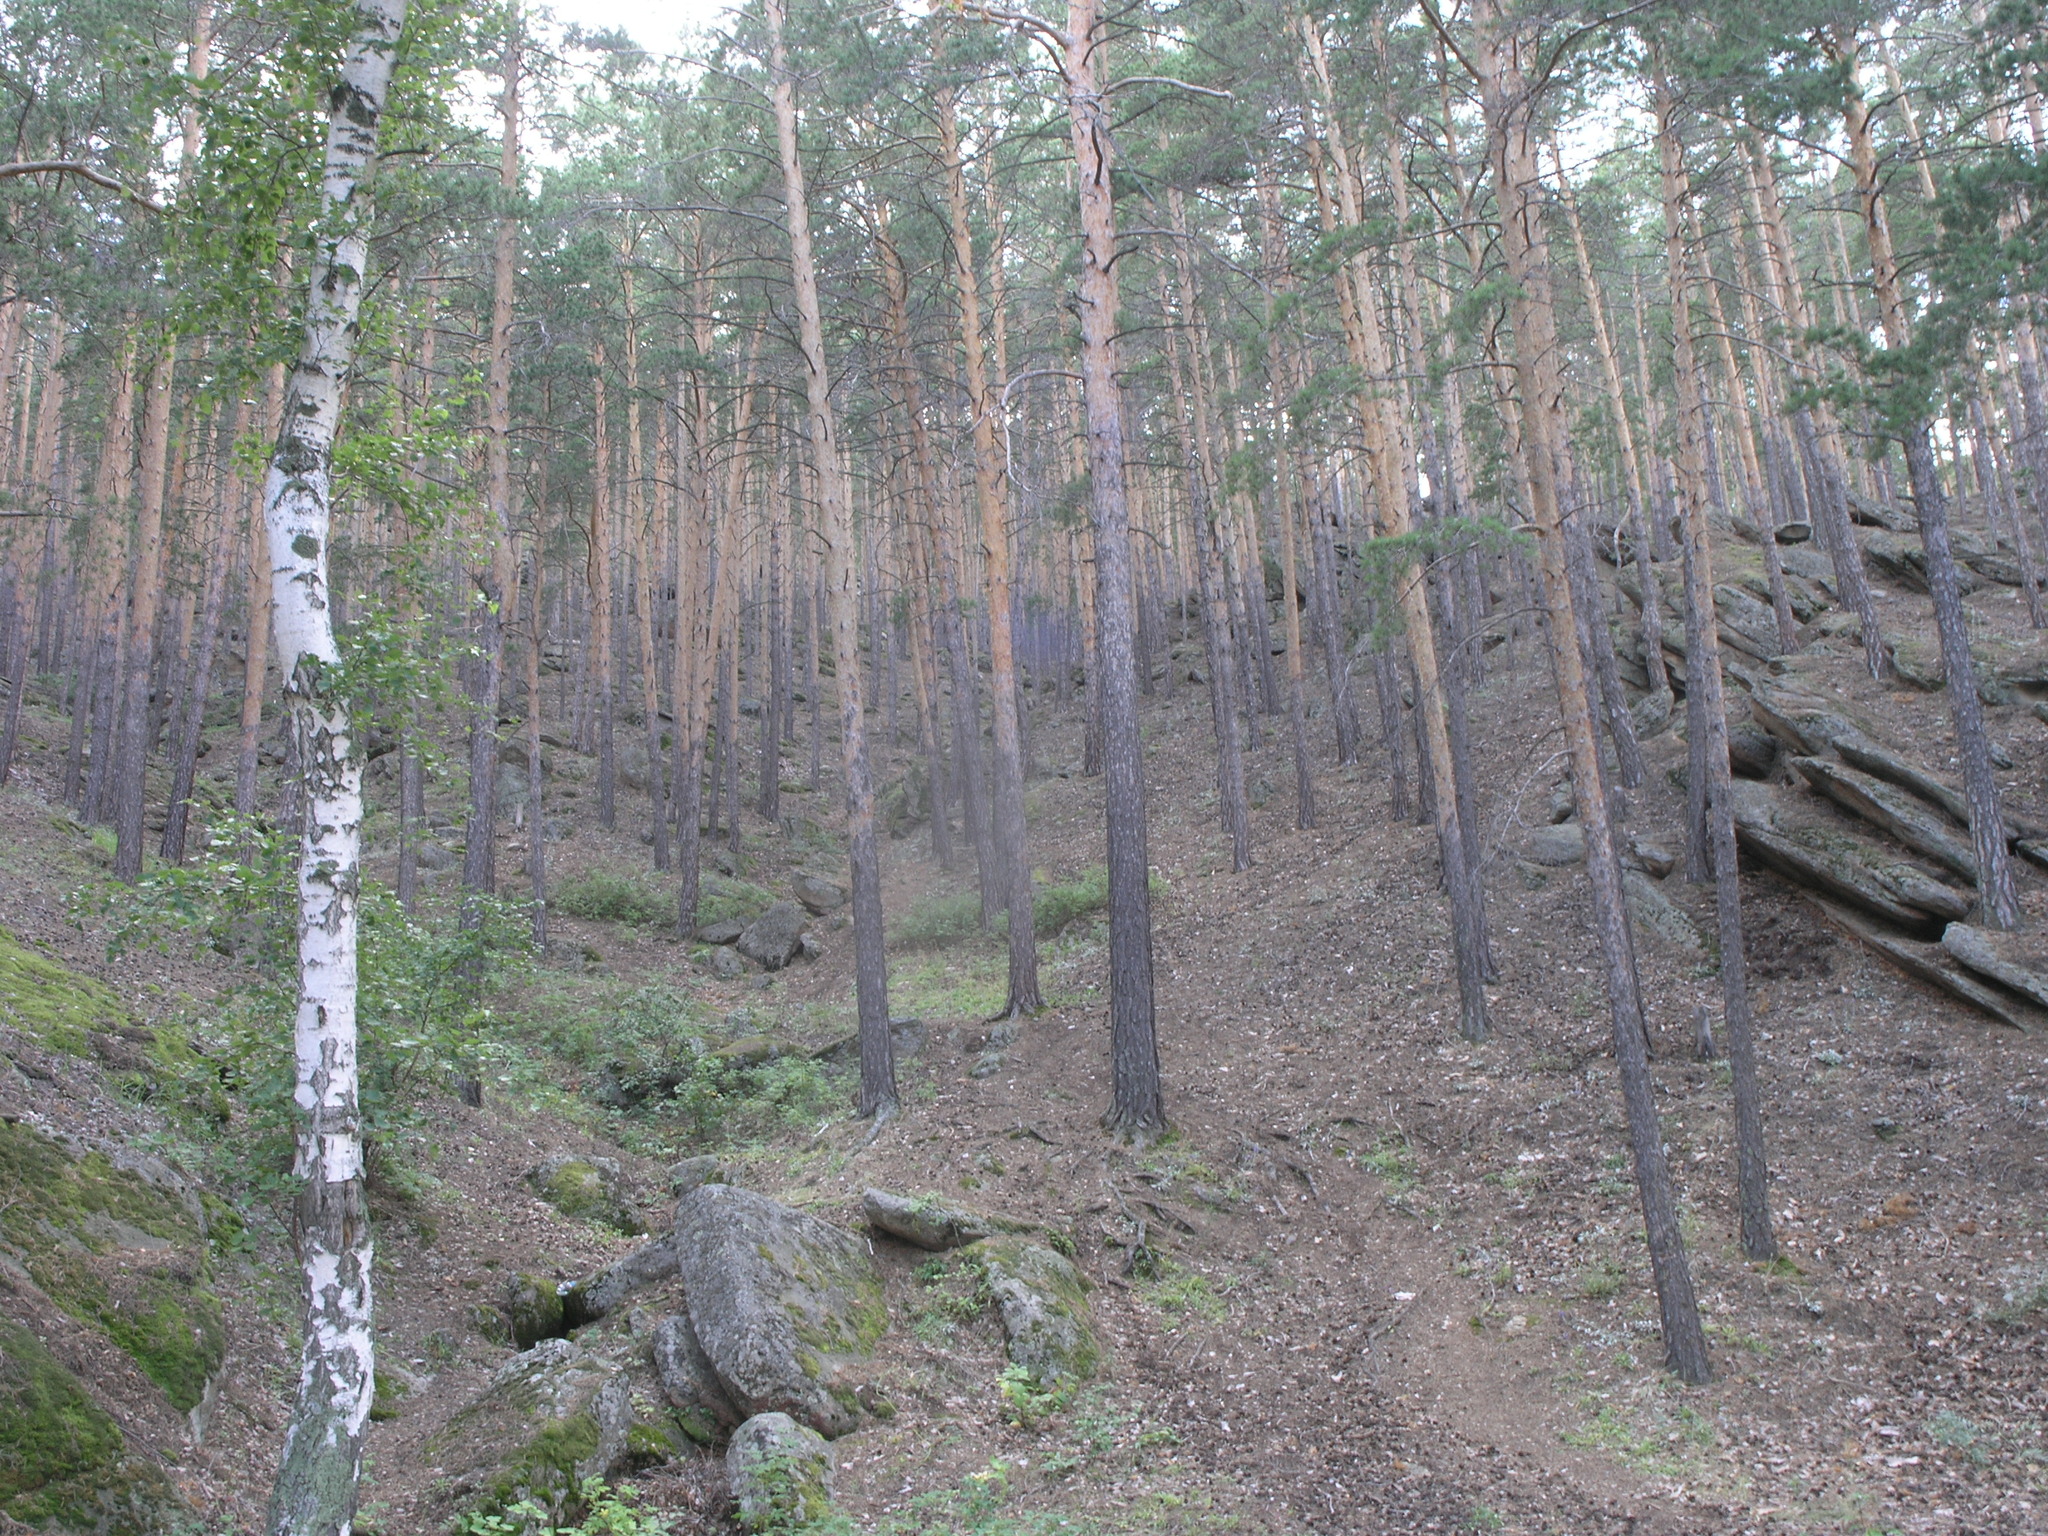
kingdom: Plantae
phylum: Tracheophyta
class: Magnoliopsida
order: Fagales
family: Betulaceae
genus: Betula
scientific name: Betula pendula
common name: Silver birch
